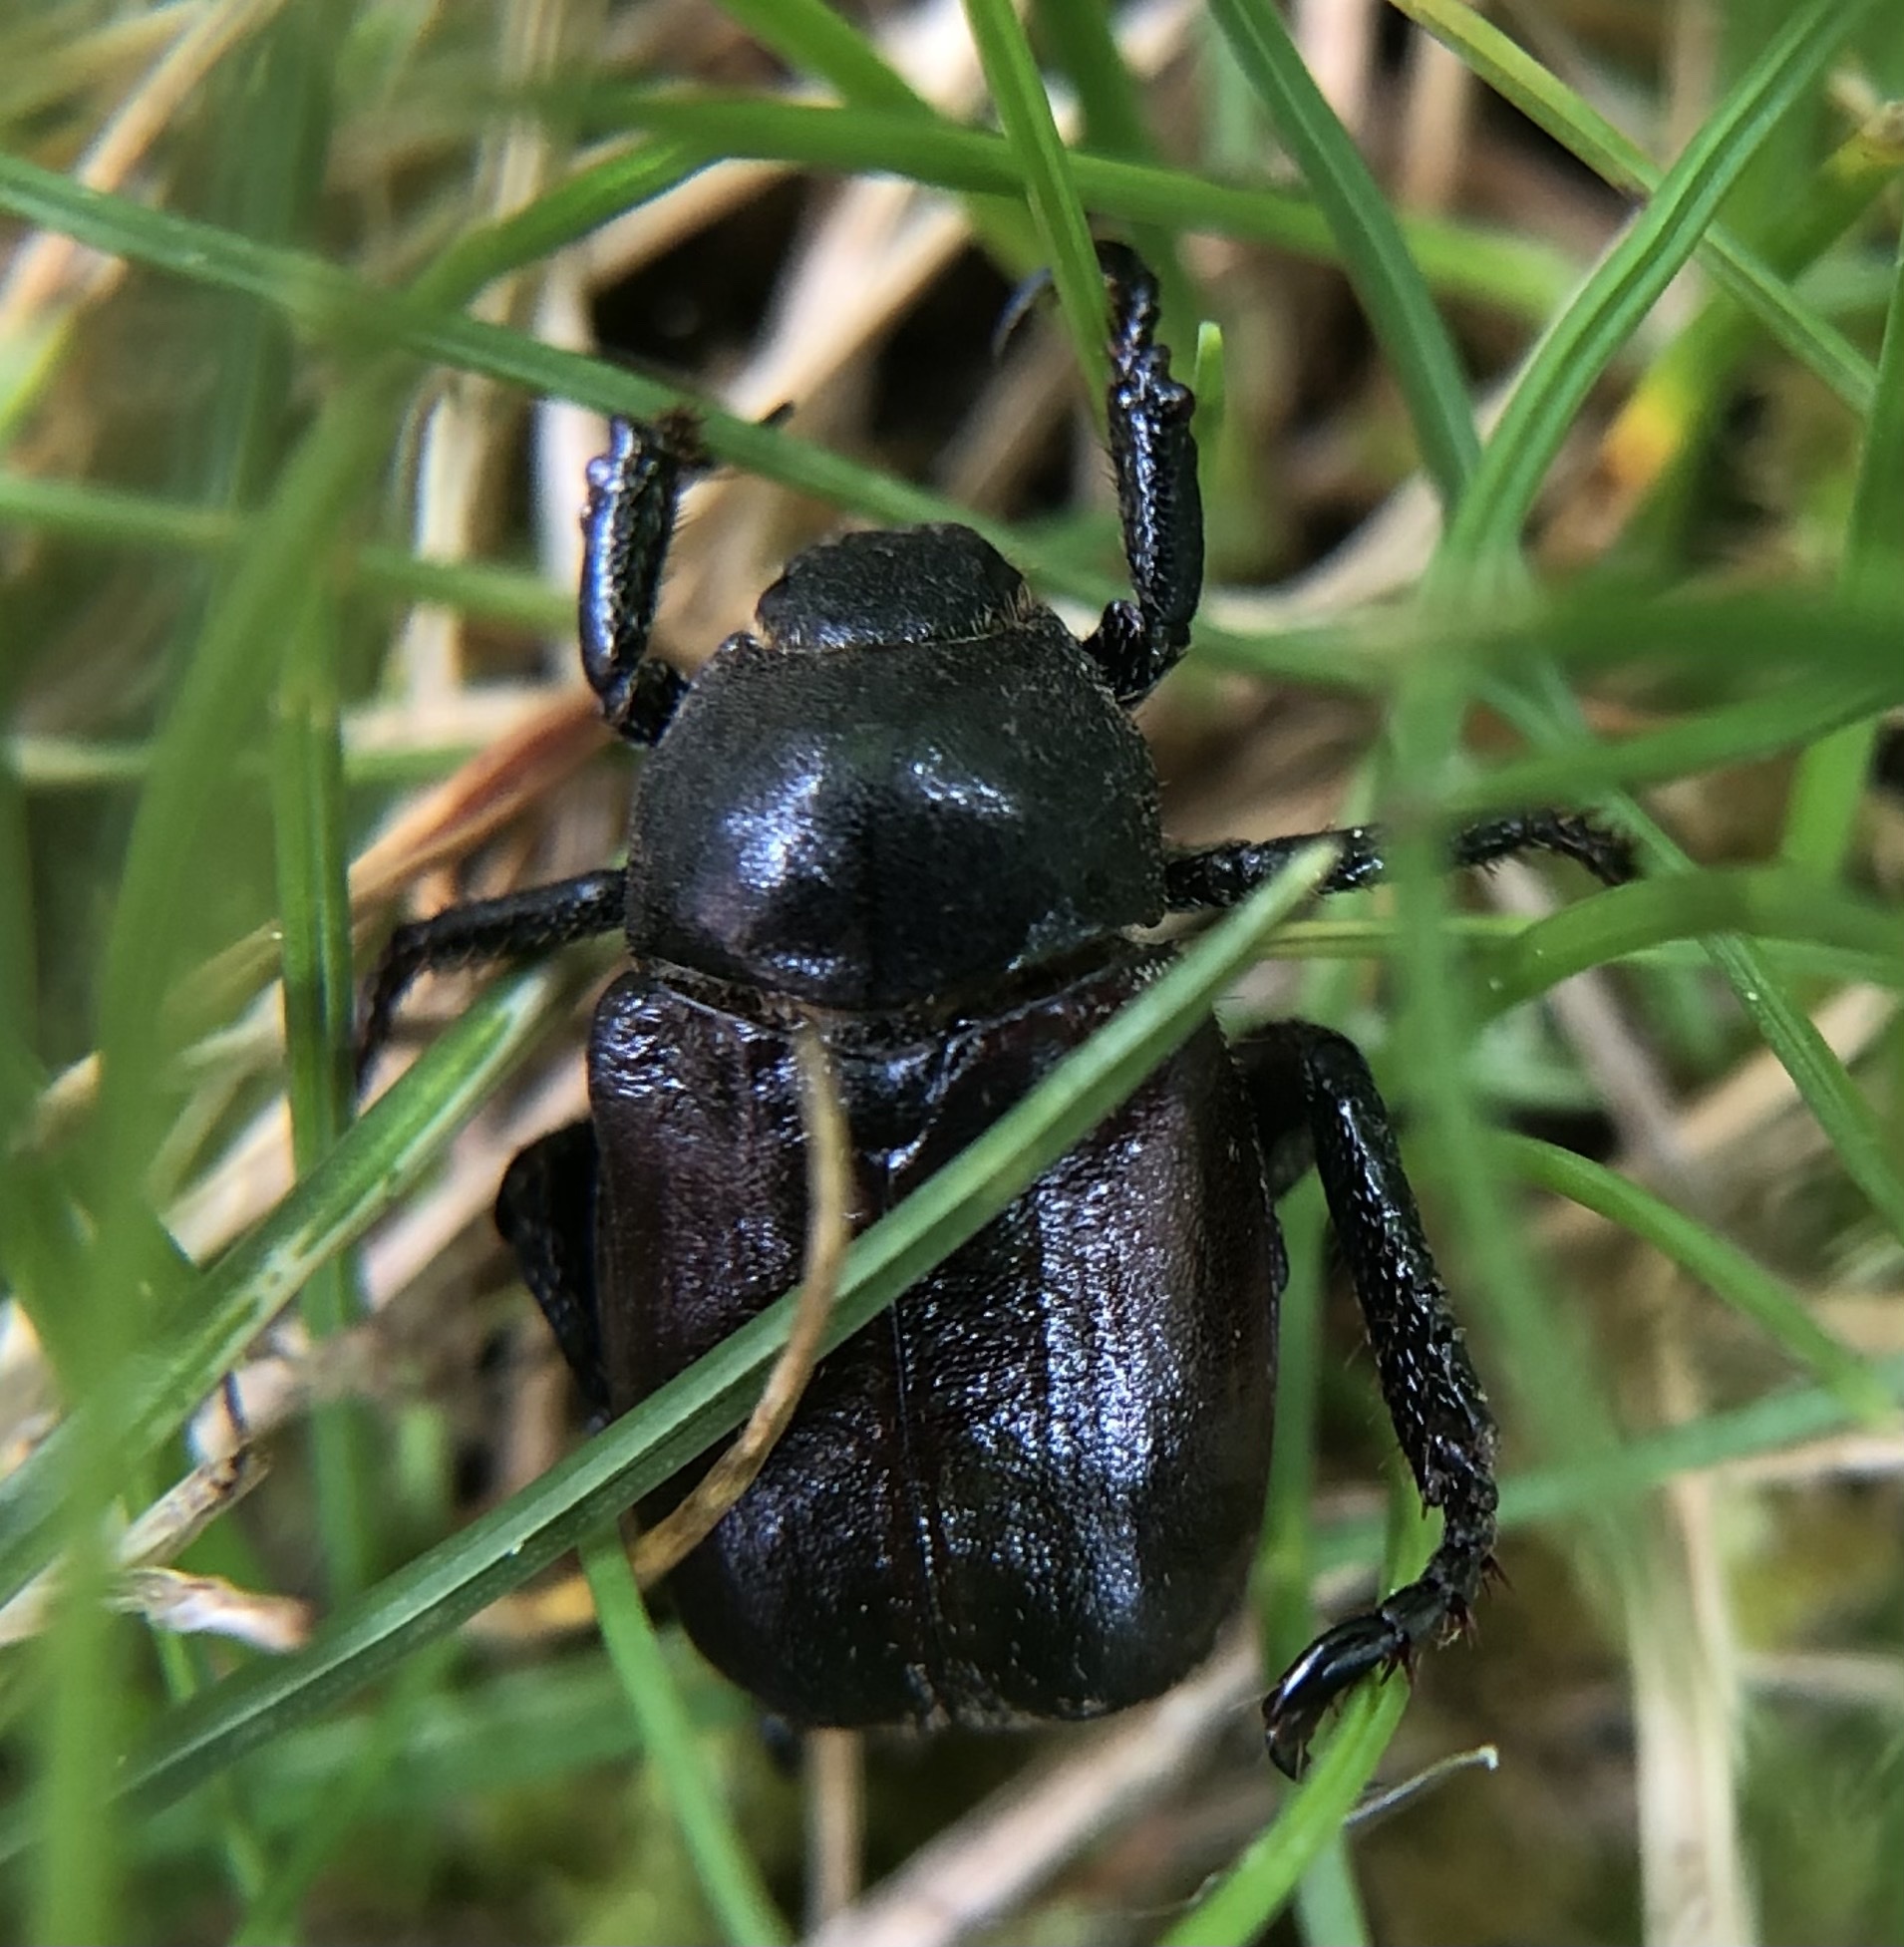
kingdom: Animalia
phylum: Arthropoda
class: Insecta
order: Coleoptera
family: Scarabaeidae
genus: Hoplia
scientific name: Hoplia philanthus
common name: Welsh chafer
